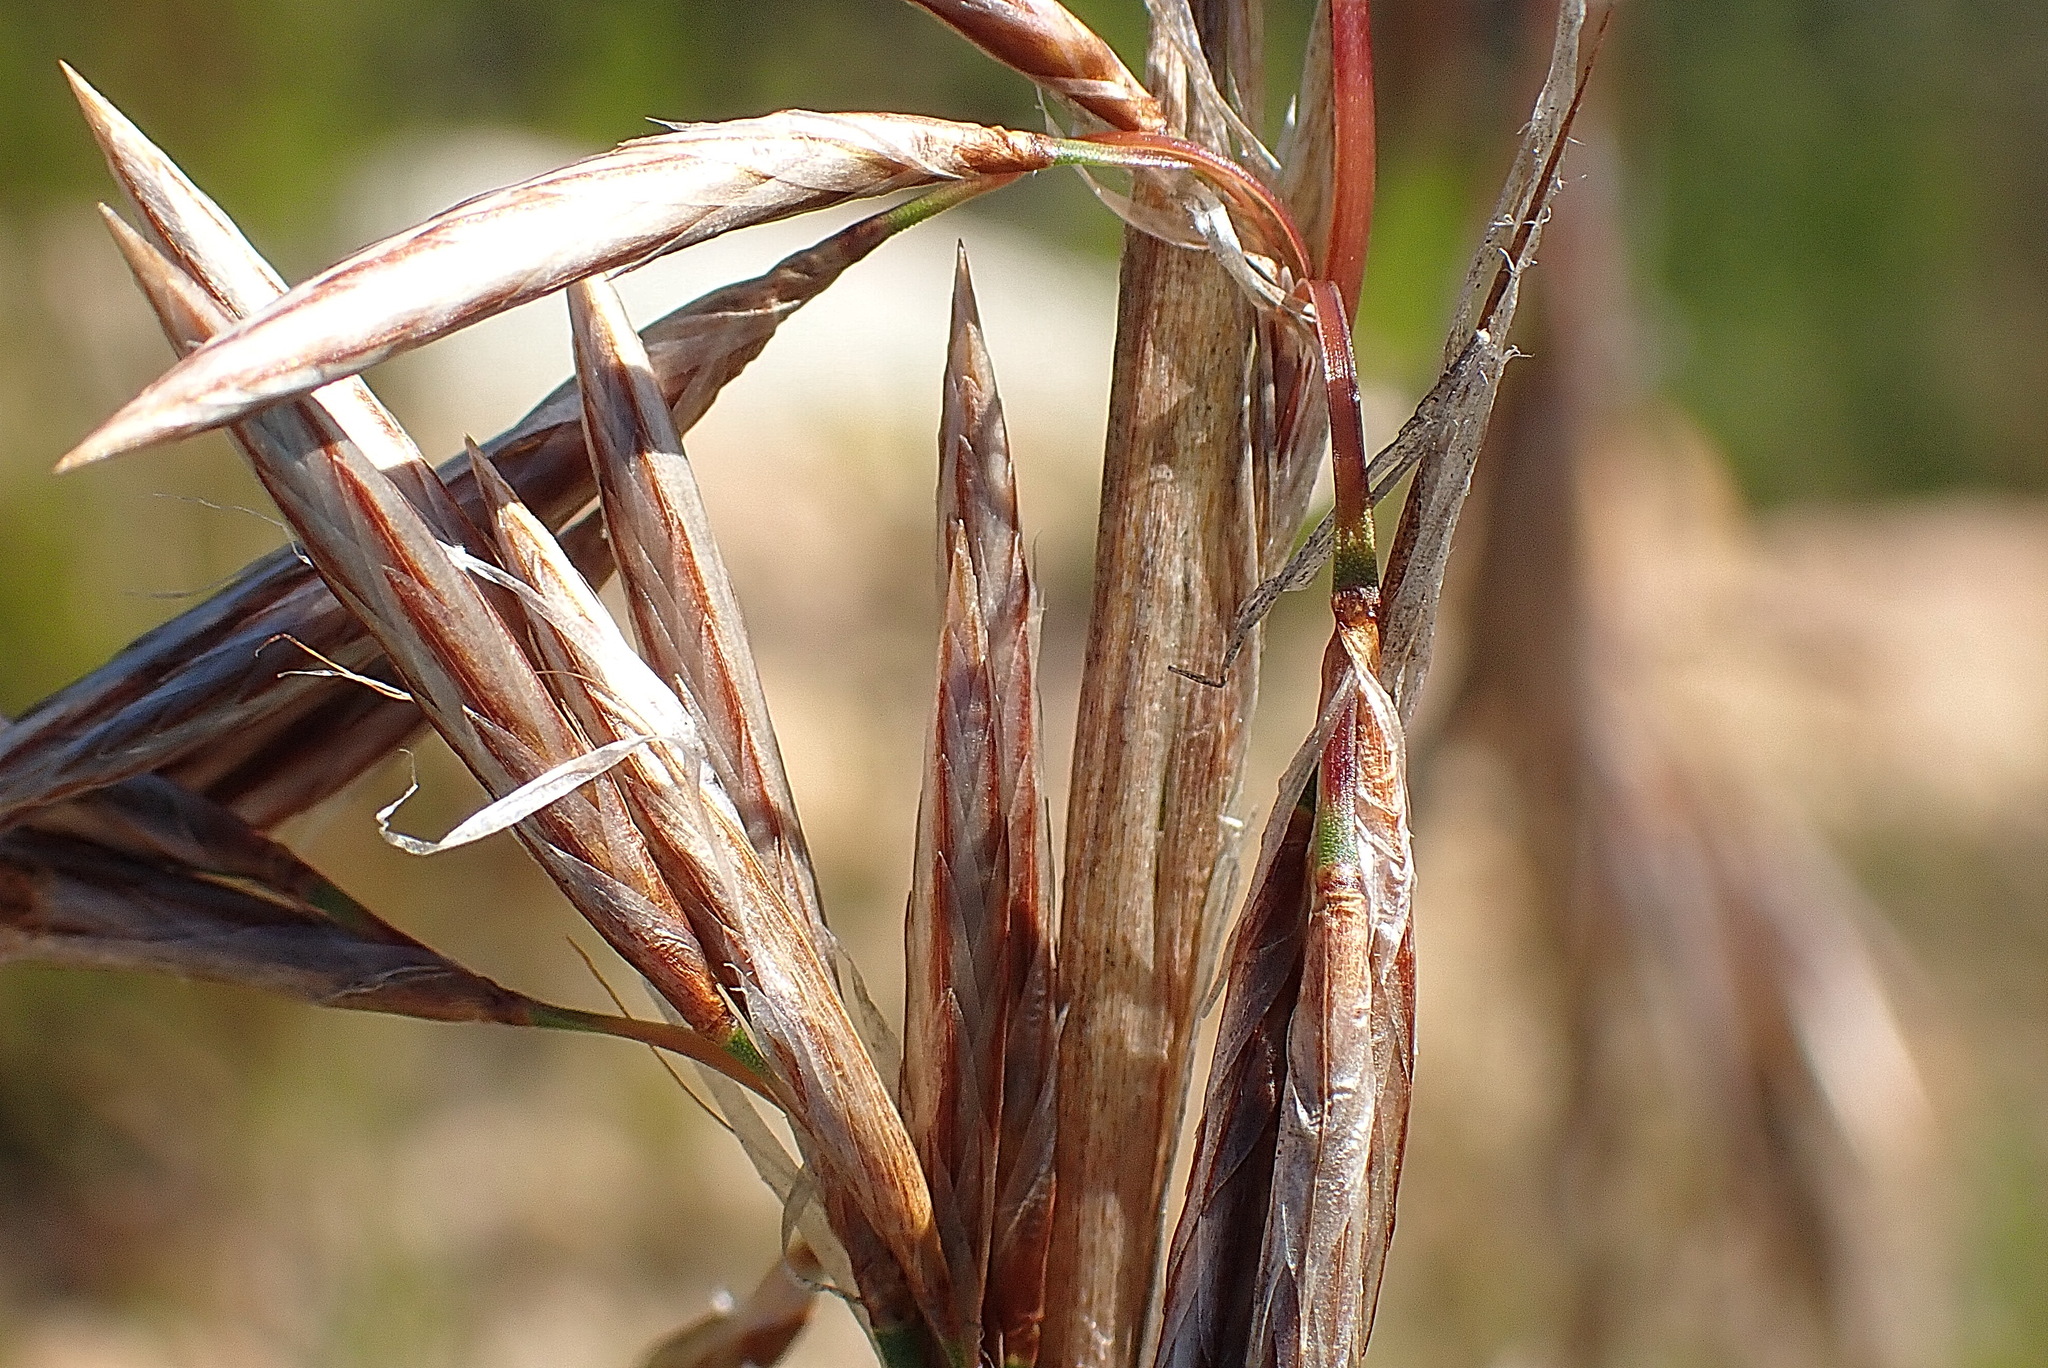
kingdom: Plantae
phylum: Tracheophyta
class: Liliopsida
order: Poales
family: Restionaceae
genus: Thamnochortus
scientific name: Thamnochortus cinereus
